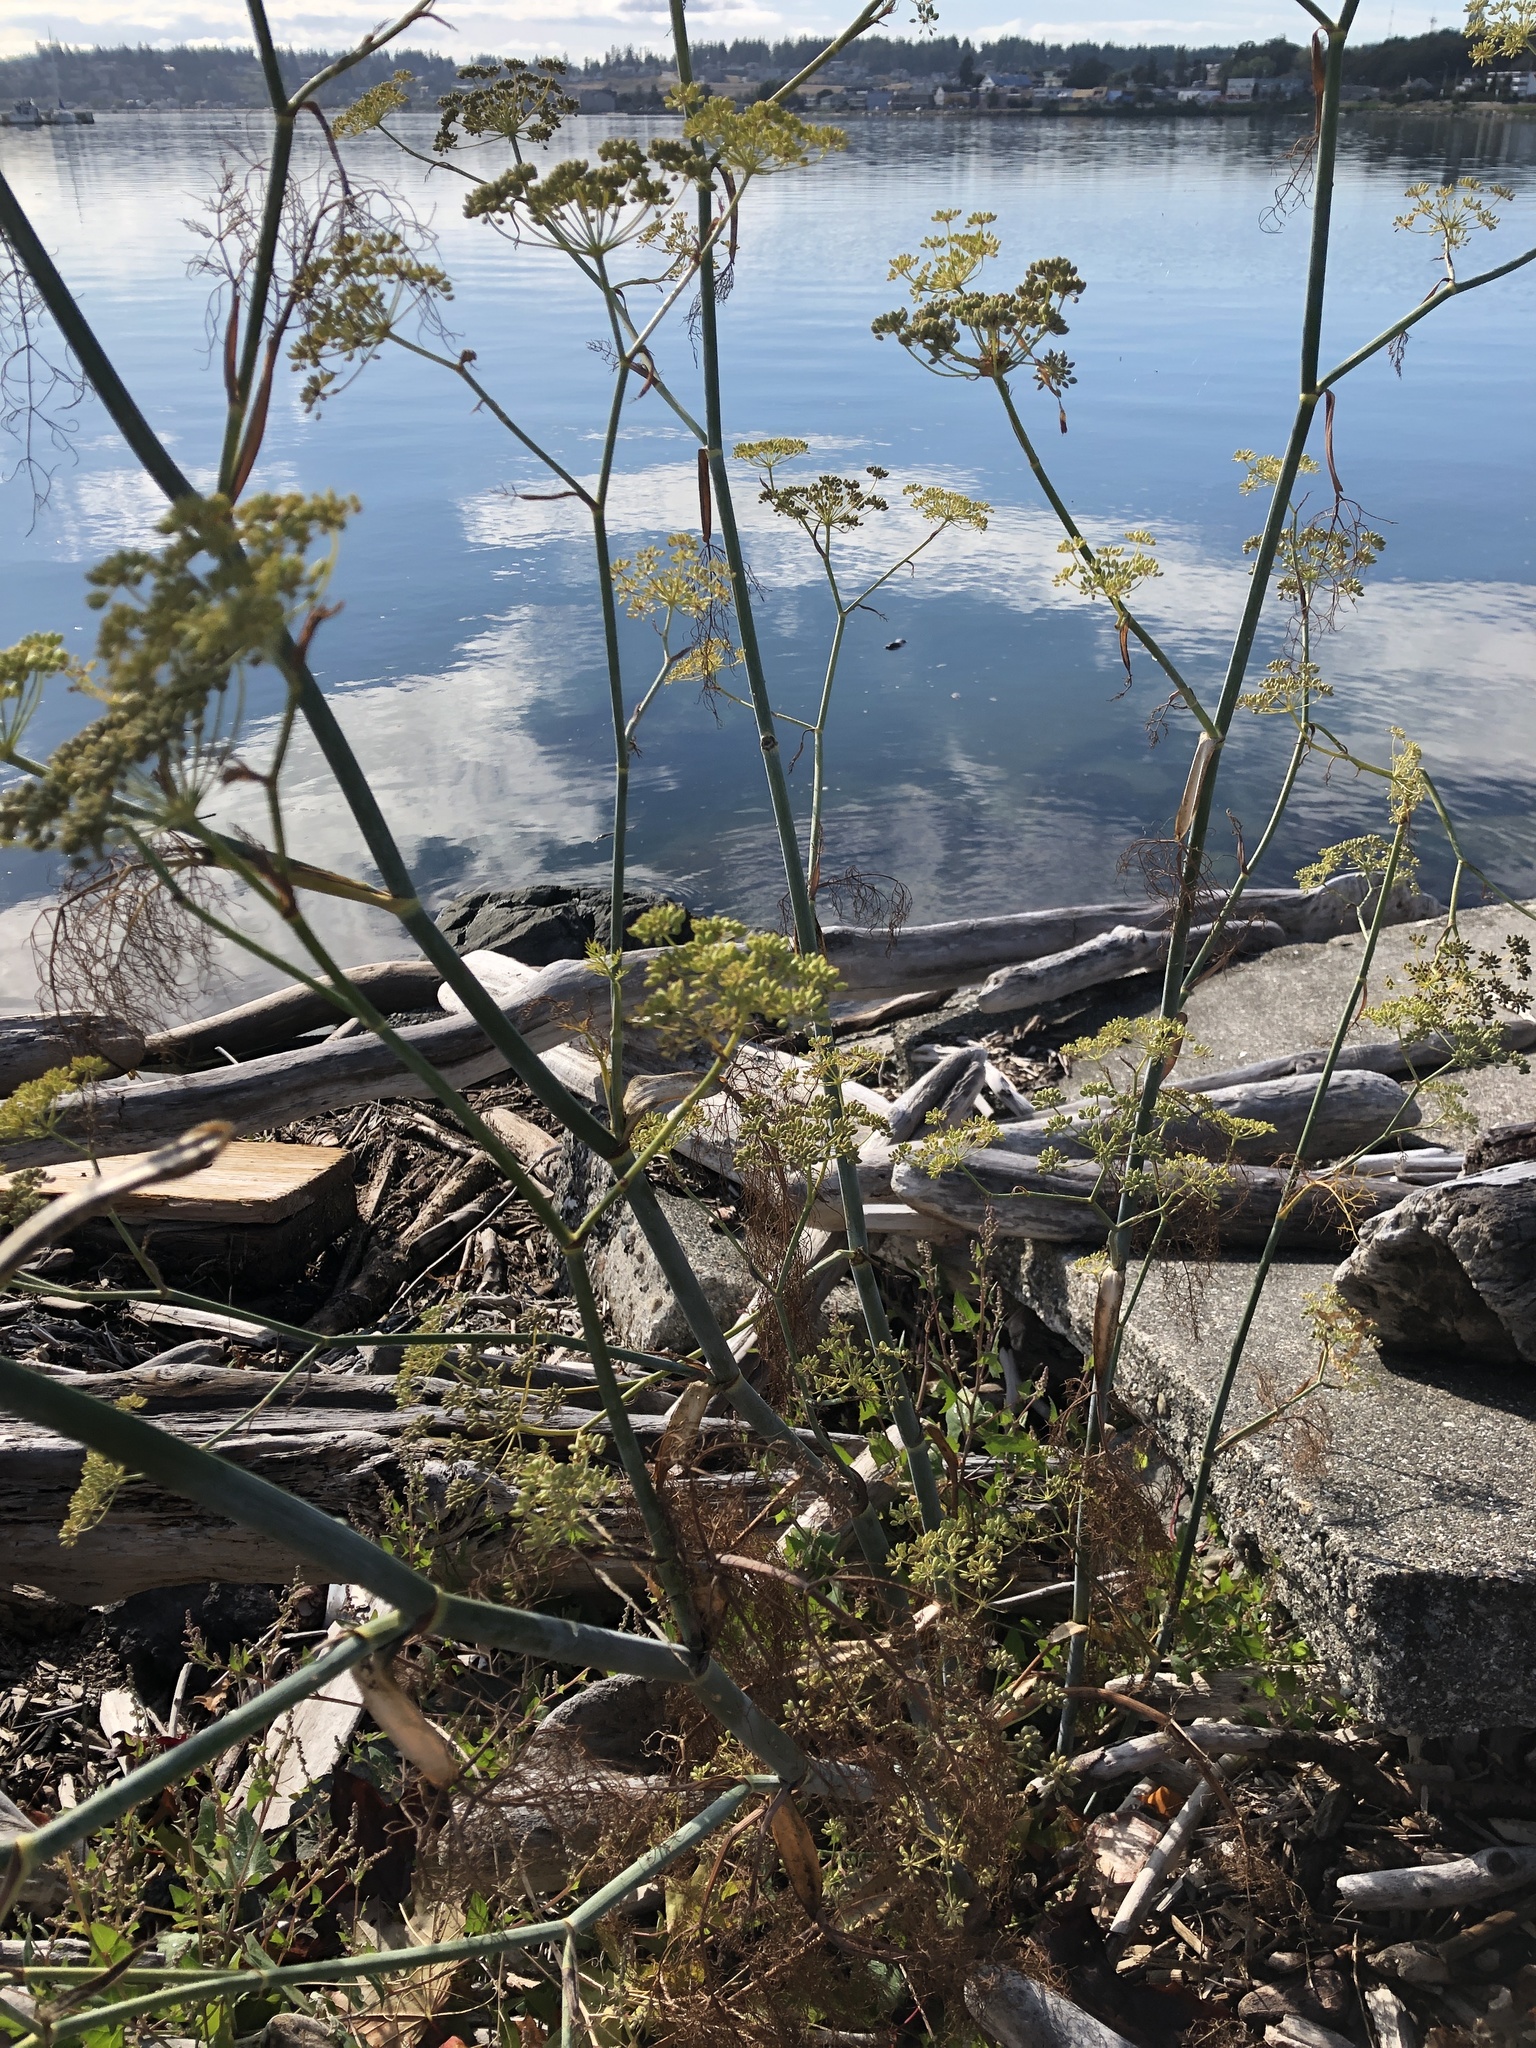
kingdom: Plantae
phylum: Tracheophyta
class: Magnoliopsida
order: Apiales
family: Apiaceae
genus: Foeniculum
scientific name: Foeniculum vulgare
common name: Fennel
